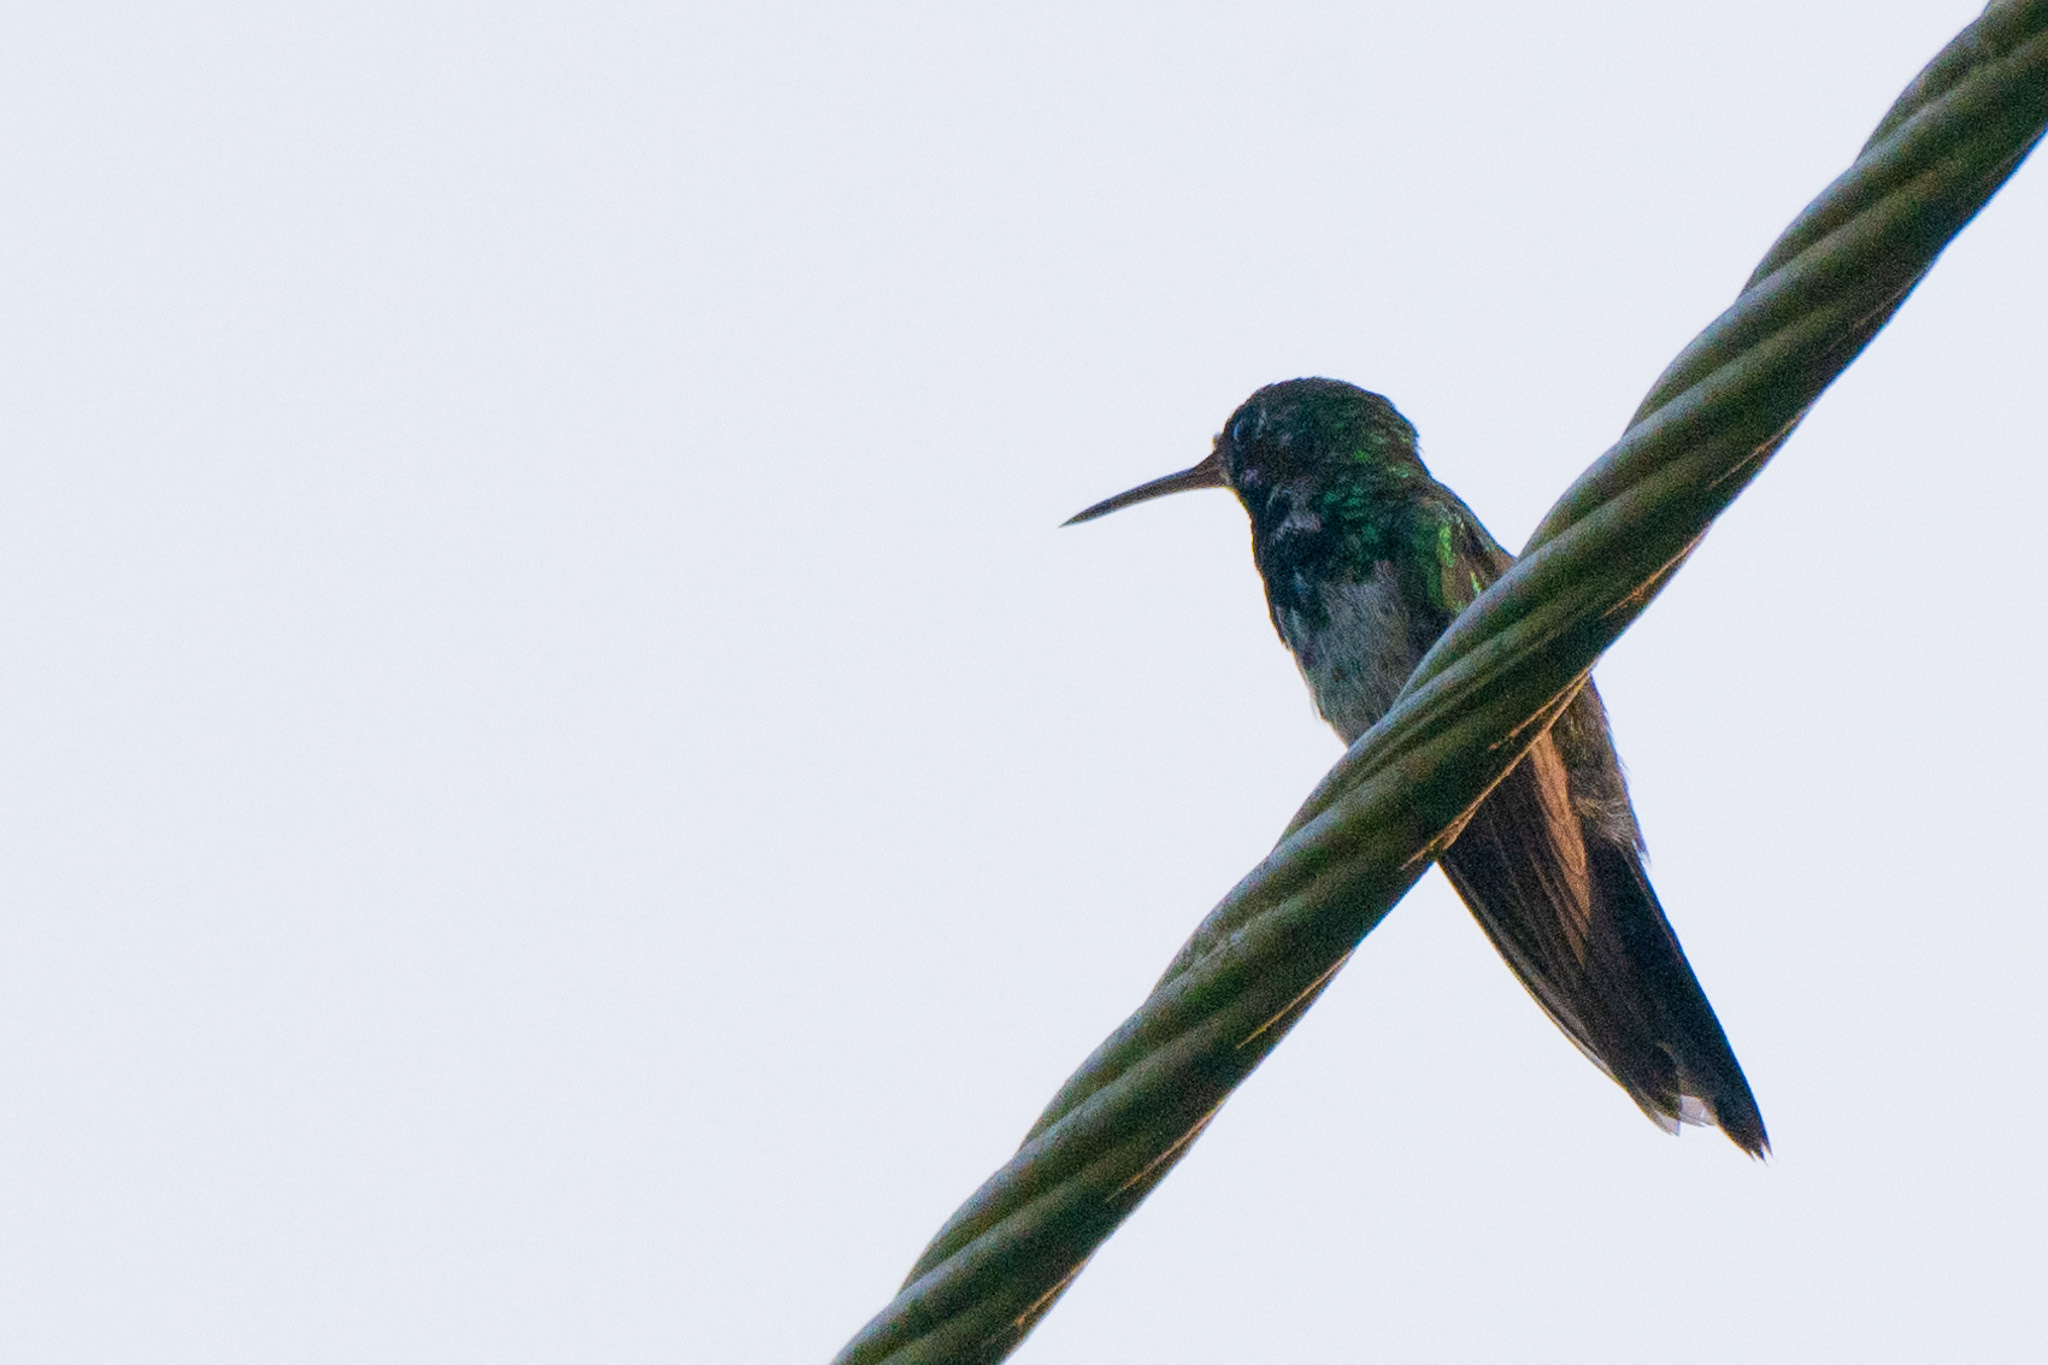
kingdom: Animalia
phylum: Chordata
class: Aves
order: Apodiformes
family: Trochilidae
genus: Cynanthus
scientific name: Cynanthus canivetii
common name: Canivet's emerald
